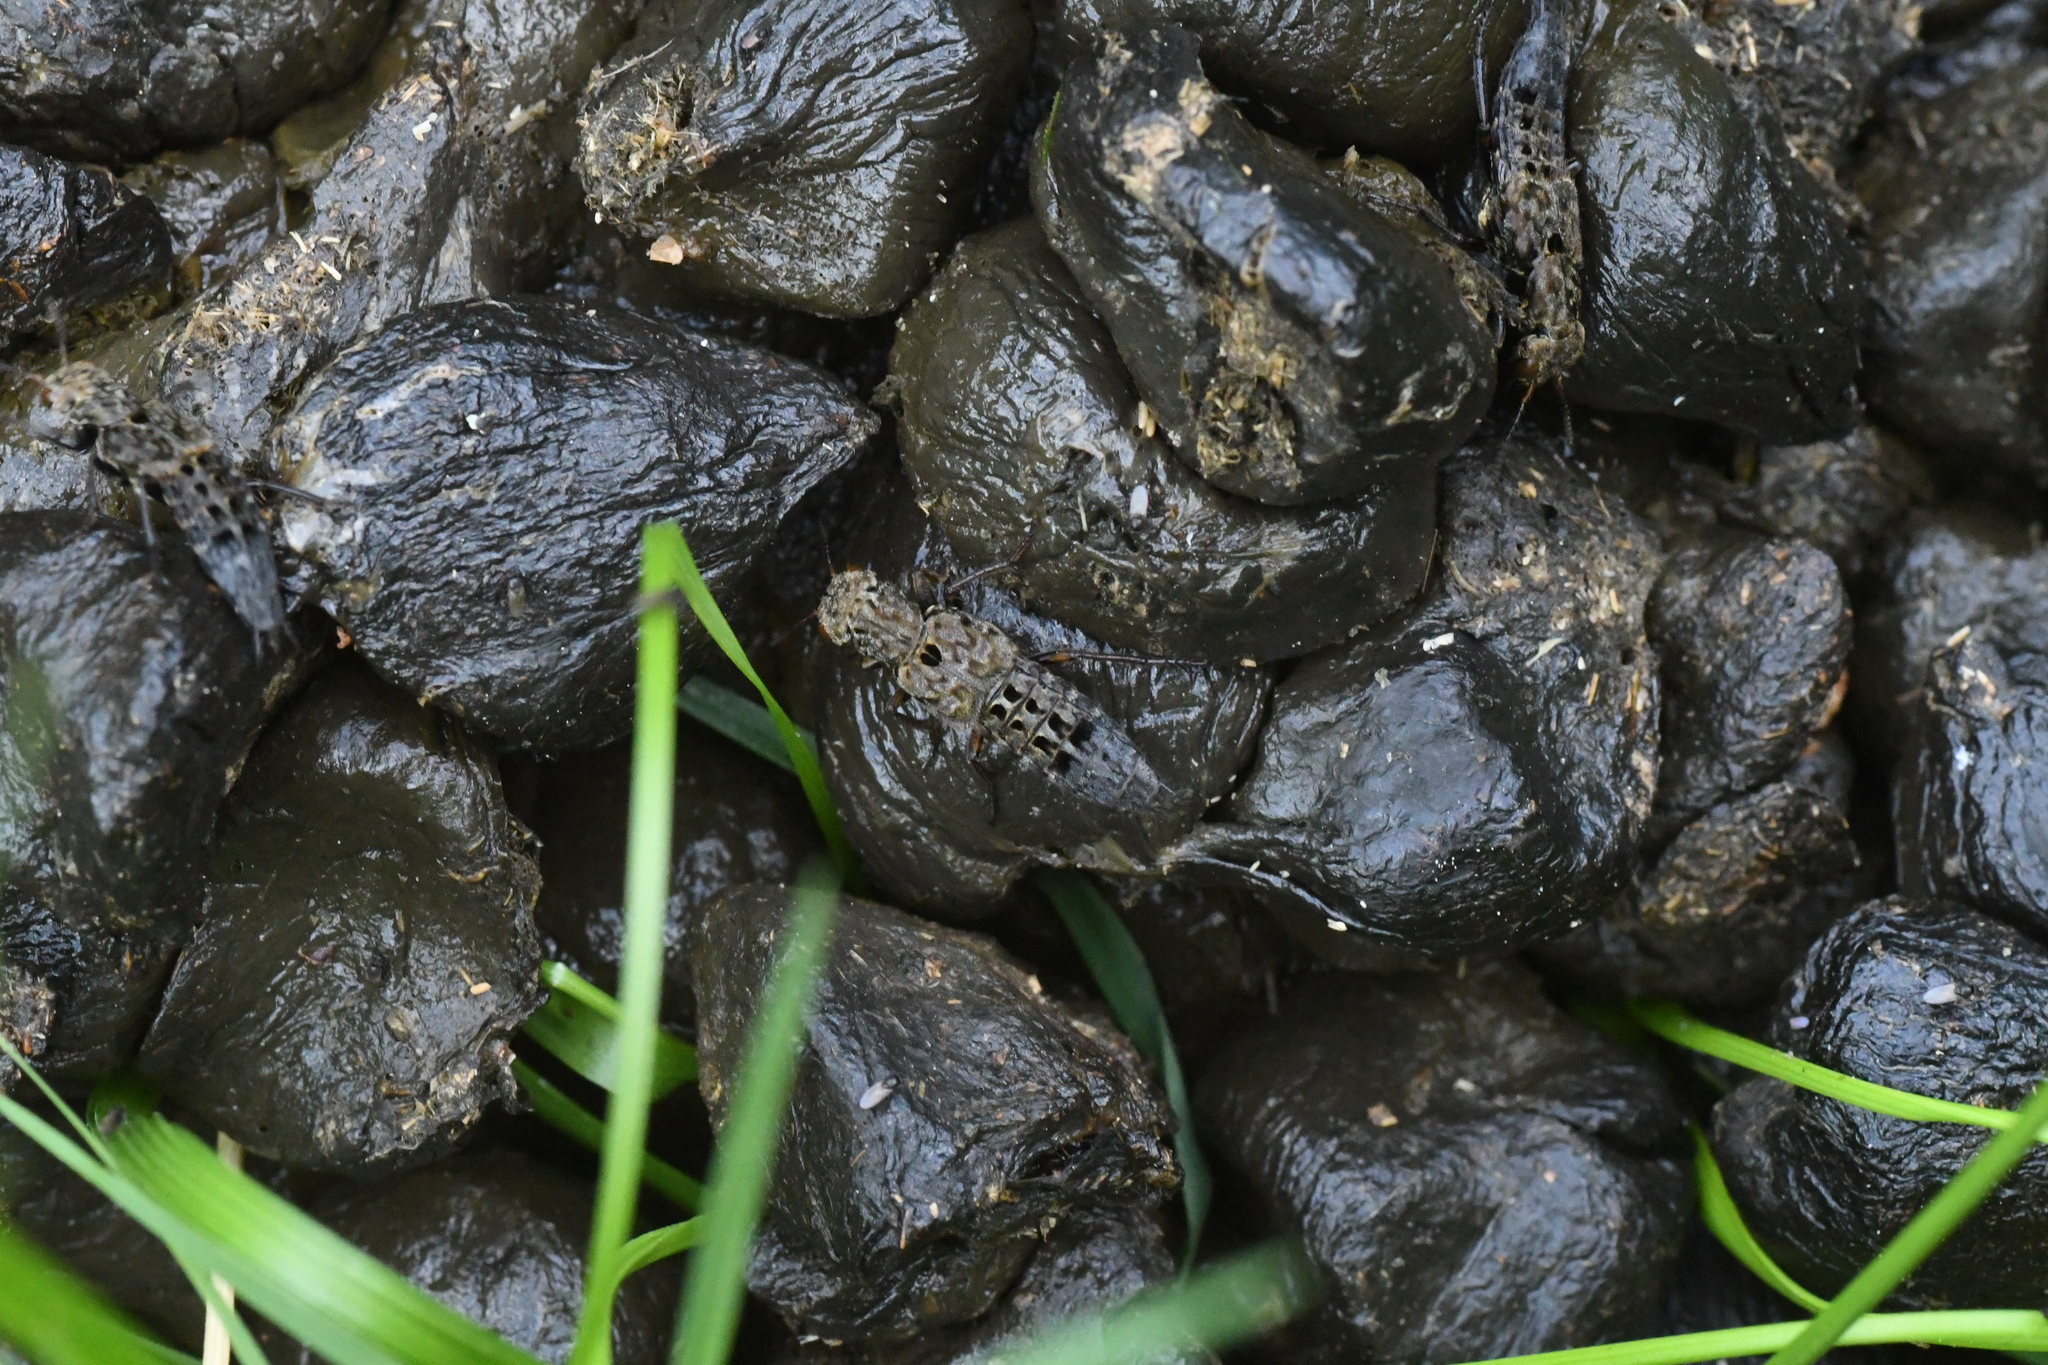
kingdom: Animalia
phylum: Arthropoda
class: Insecta
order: Coleoptera
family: Staphylinidae
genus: Ontholestes
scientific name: Ontholestes tessellatus
